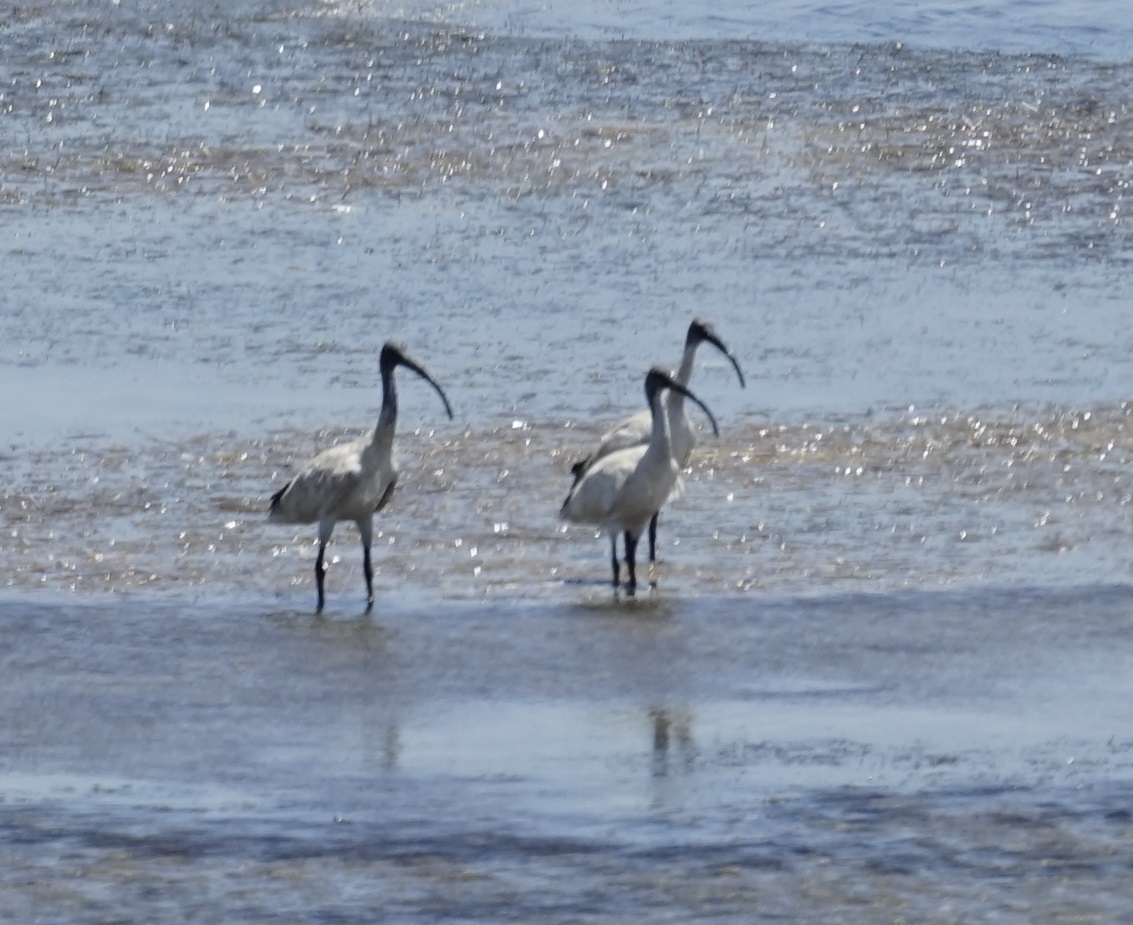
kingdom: Animalia
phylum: Chordata
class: Aves
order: Pelecaniformes
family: Threskiornithidae
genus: Threskiornis
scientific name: Threskiornis molucca
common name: Australian white ibis
